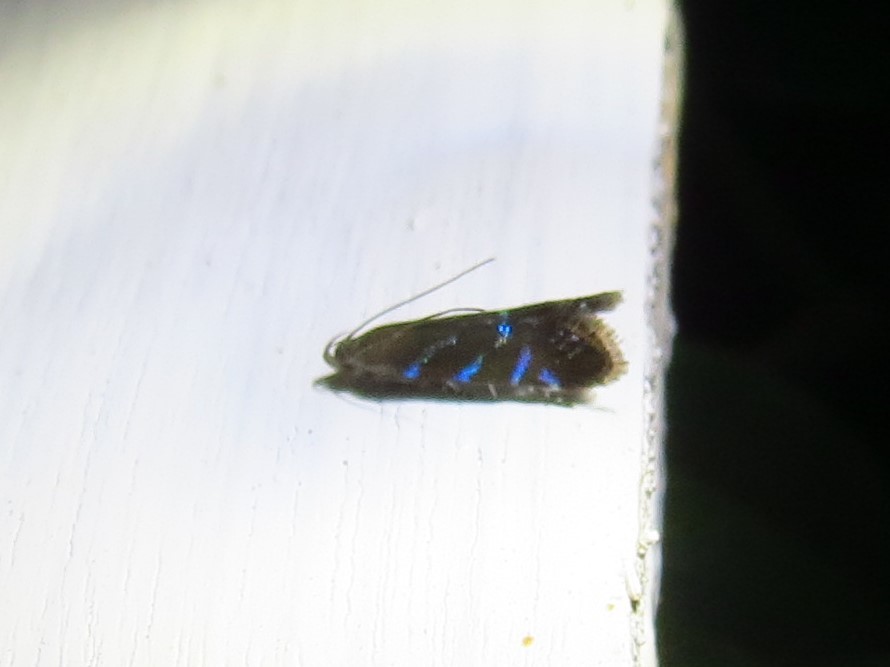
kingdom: Animalia
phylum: Arthropoda
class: Insecta
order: Lepidoptera
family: Gelechiidae
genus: Strobisia
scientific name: Strobisia proserpinella
